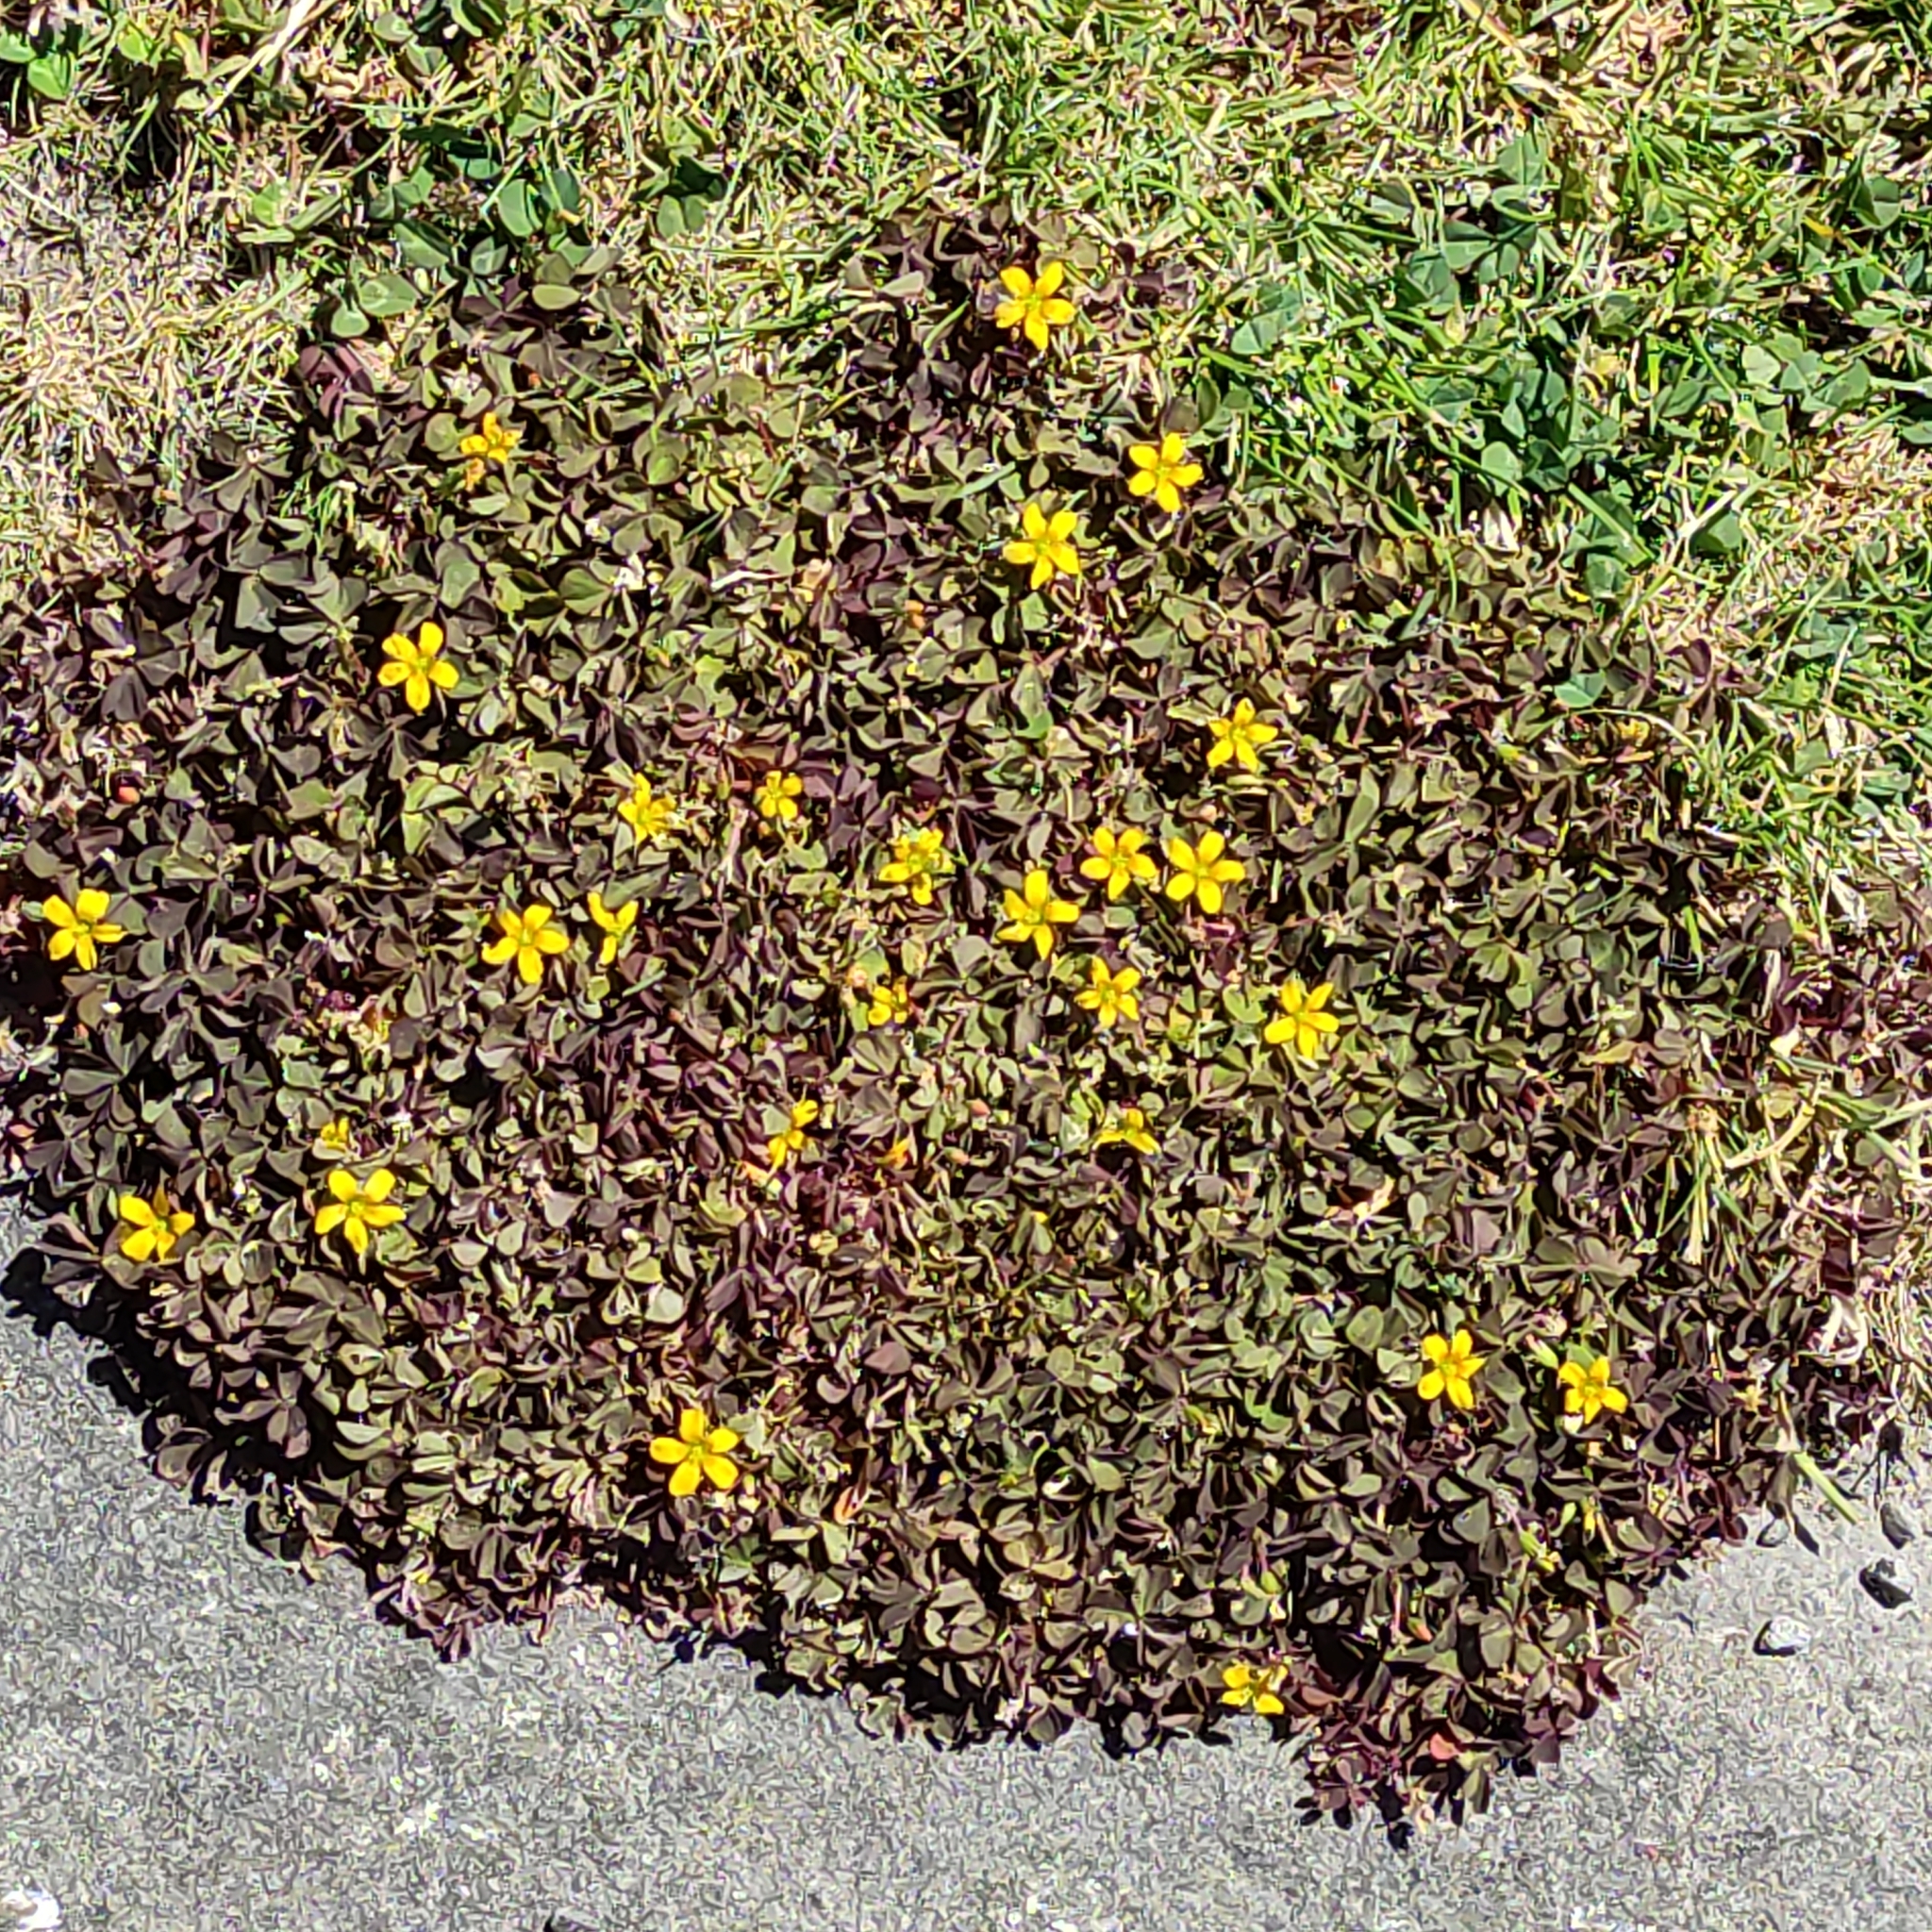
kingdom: Plantae
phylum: Tracheophyta
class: Magnoliopsida
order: Oxalidales
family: Oxalidaceae
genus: Oxalis
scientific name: Oxalis exilis
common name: Least yellow-sorrel
